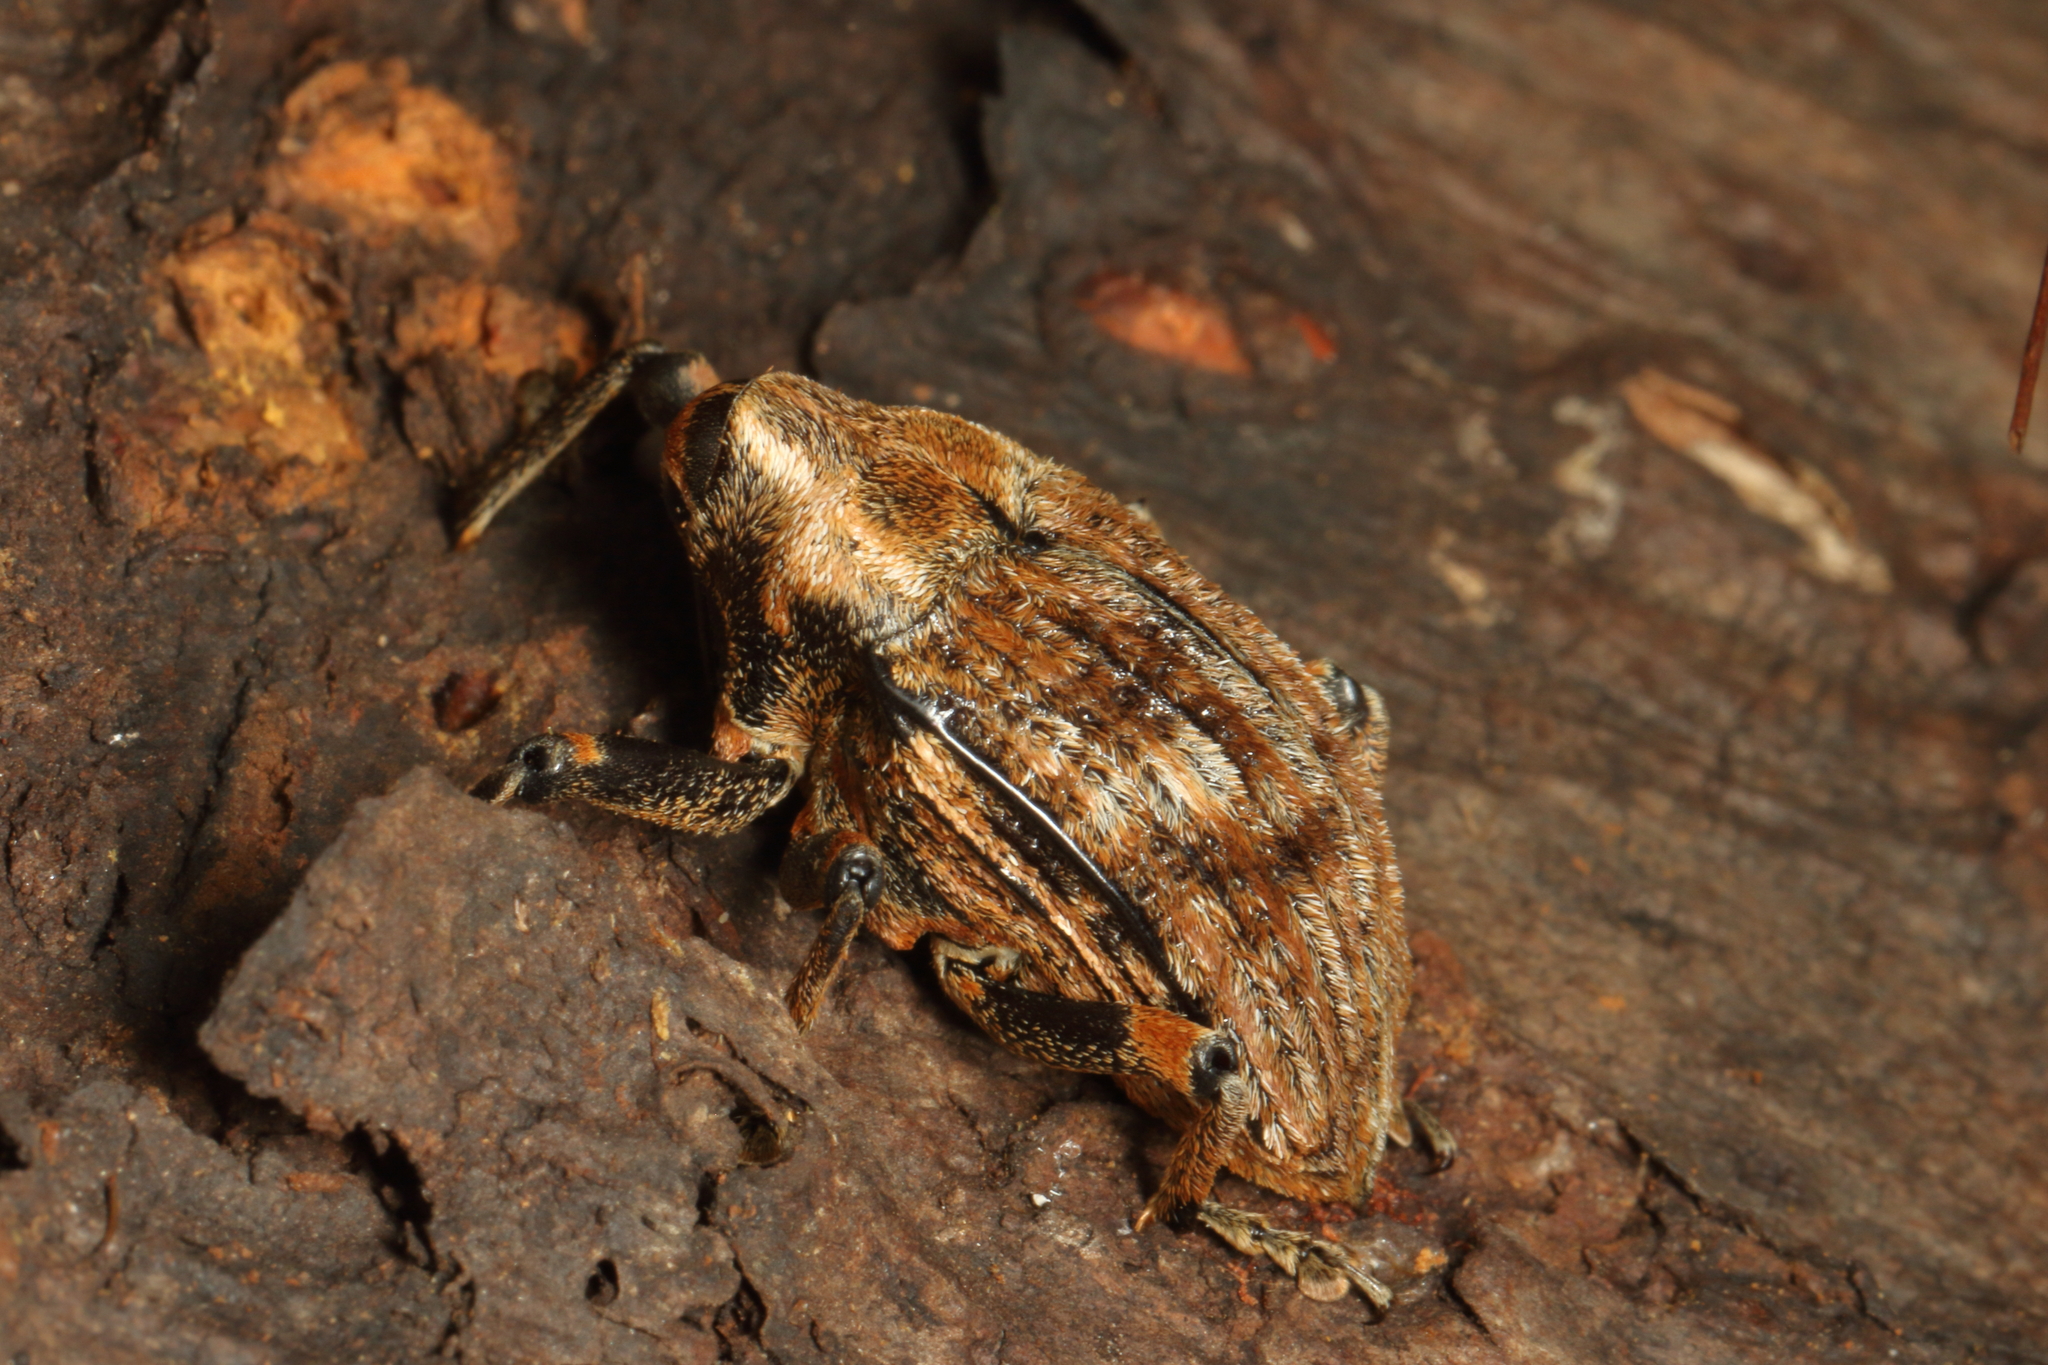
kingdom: Animalia
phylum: Arthropoda
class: Insecta
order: Coleoptera
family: Curculionidae
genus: Rhynchodes
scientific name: Rhynchodes ursus
